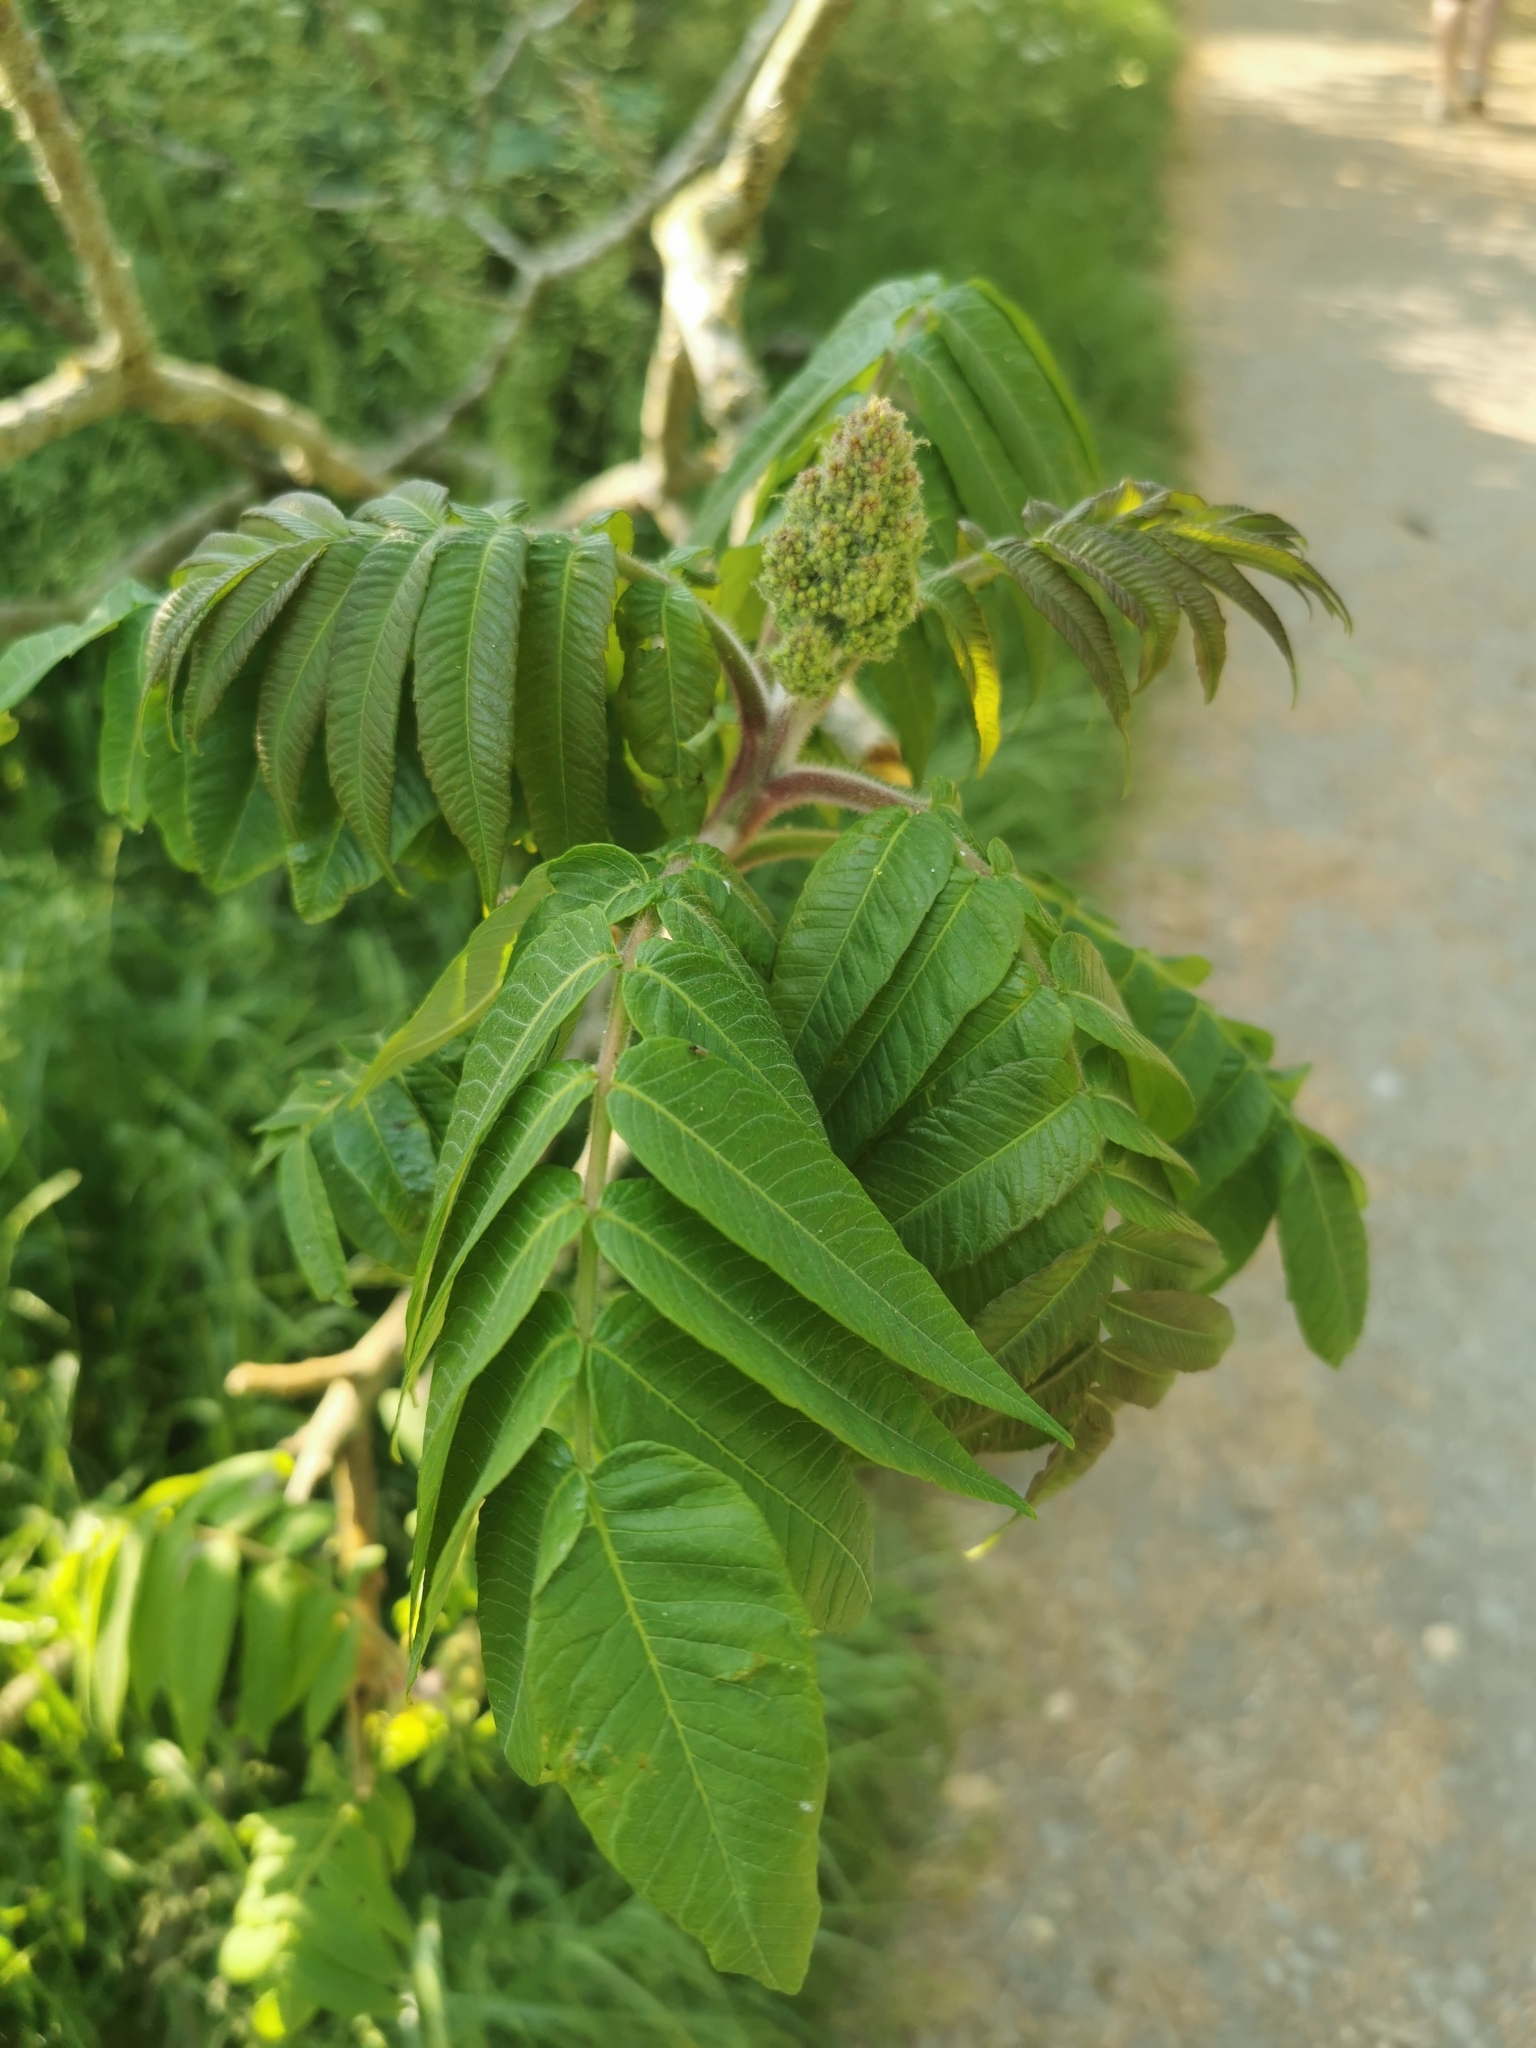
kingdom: Plantae
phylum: Tracheophyta
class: Magnoliopsida
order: Sapindales
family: Anacardiaceae
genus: Rhus
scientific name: Rhus typhina
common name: Staghorn sumac
